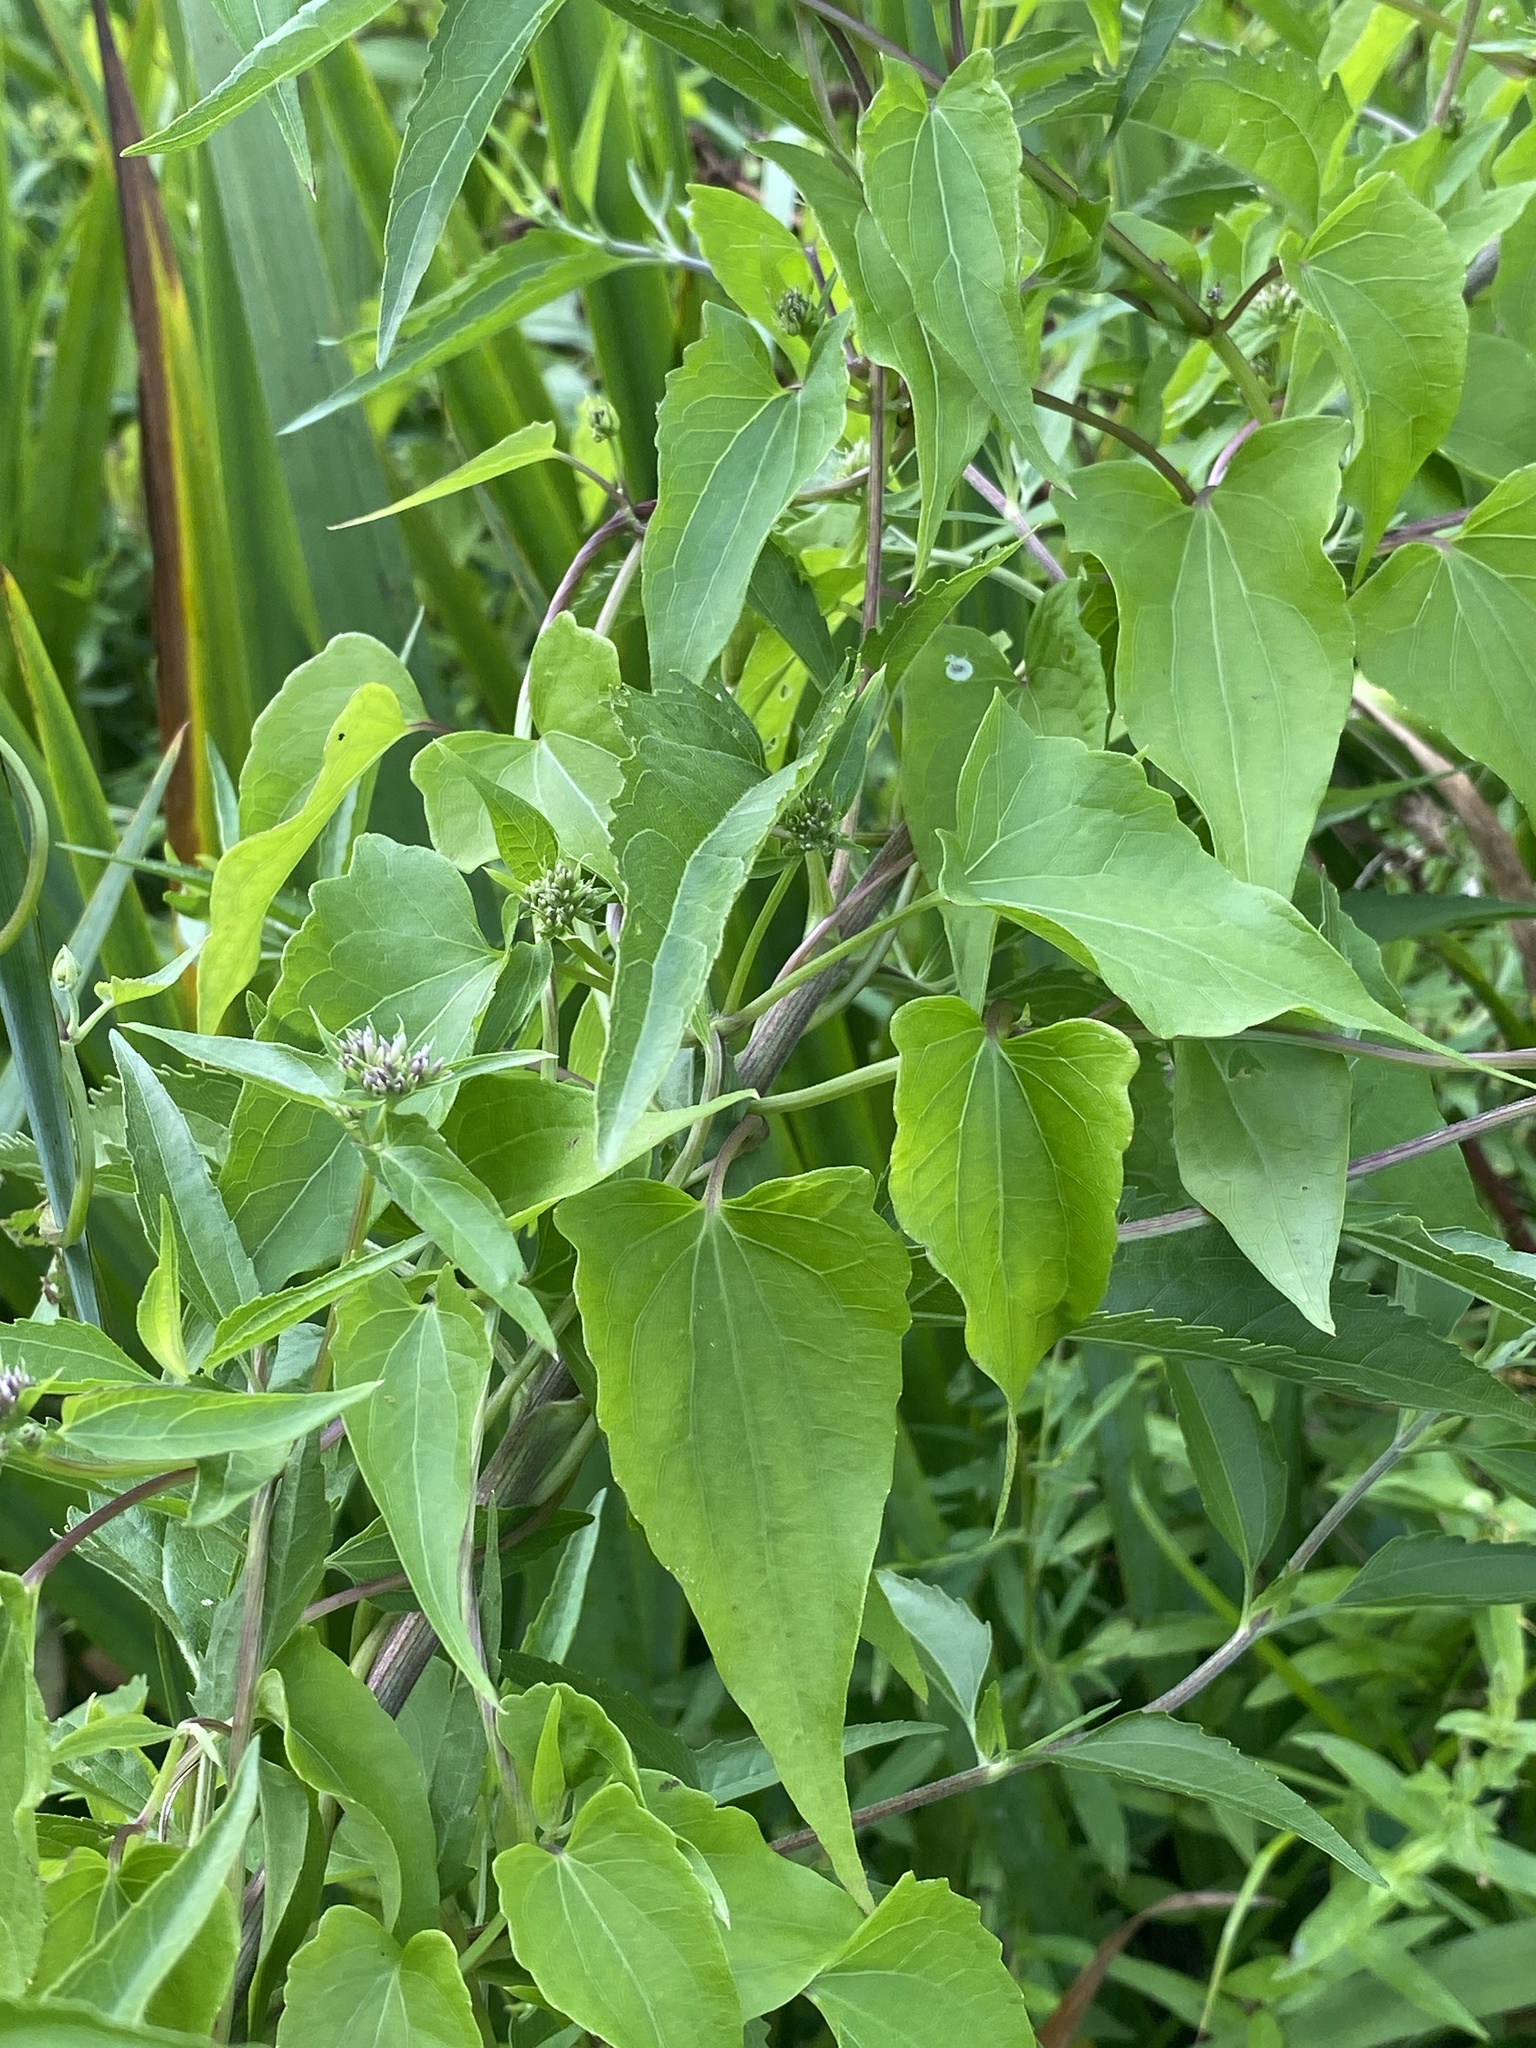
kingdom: Plantae
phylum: Tracheophyta
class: Magnoliopsida
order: Asterales
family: Asteraceae
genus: Mikania
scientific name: Mikania scandens
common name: Climbing hempvine
